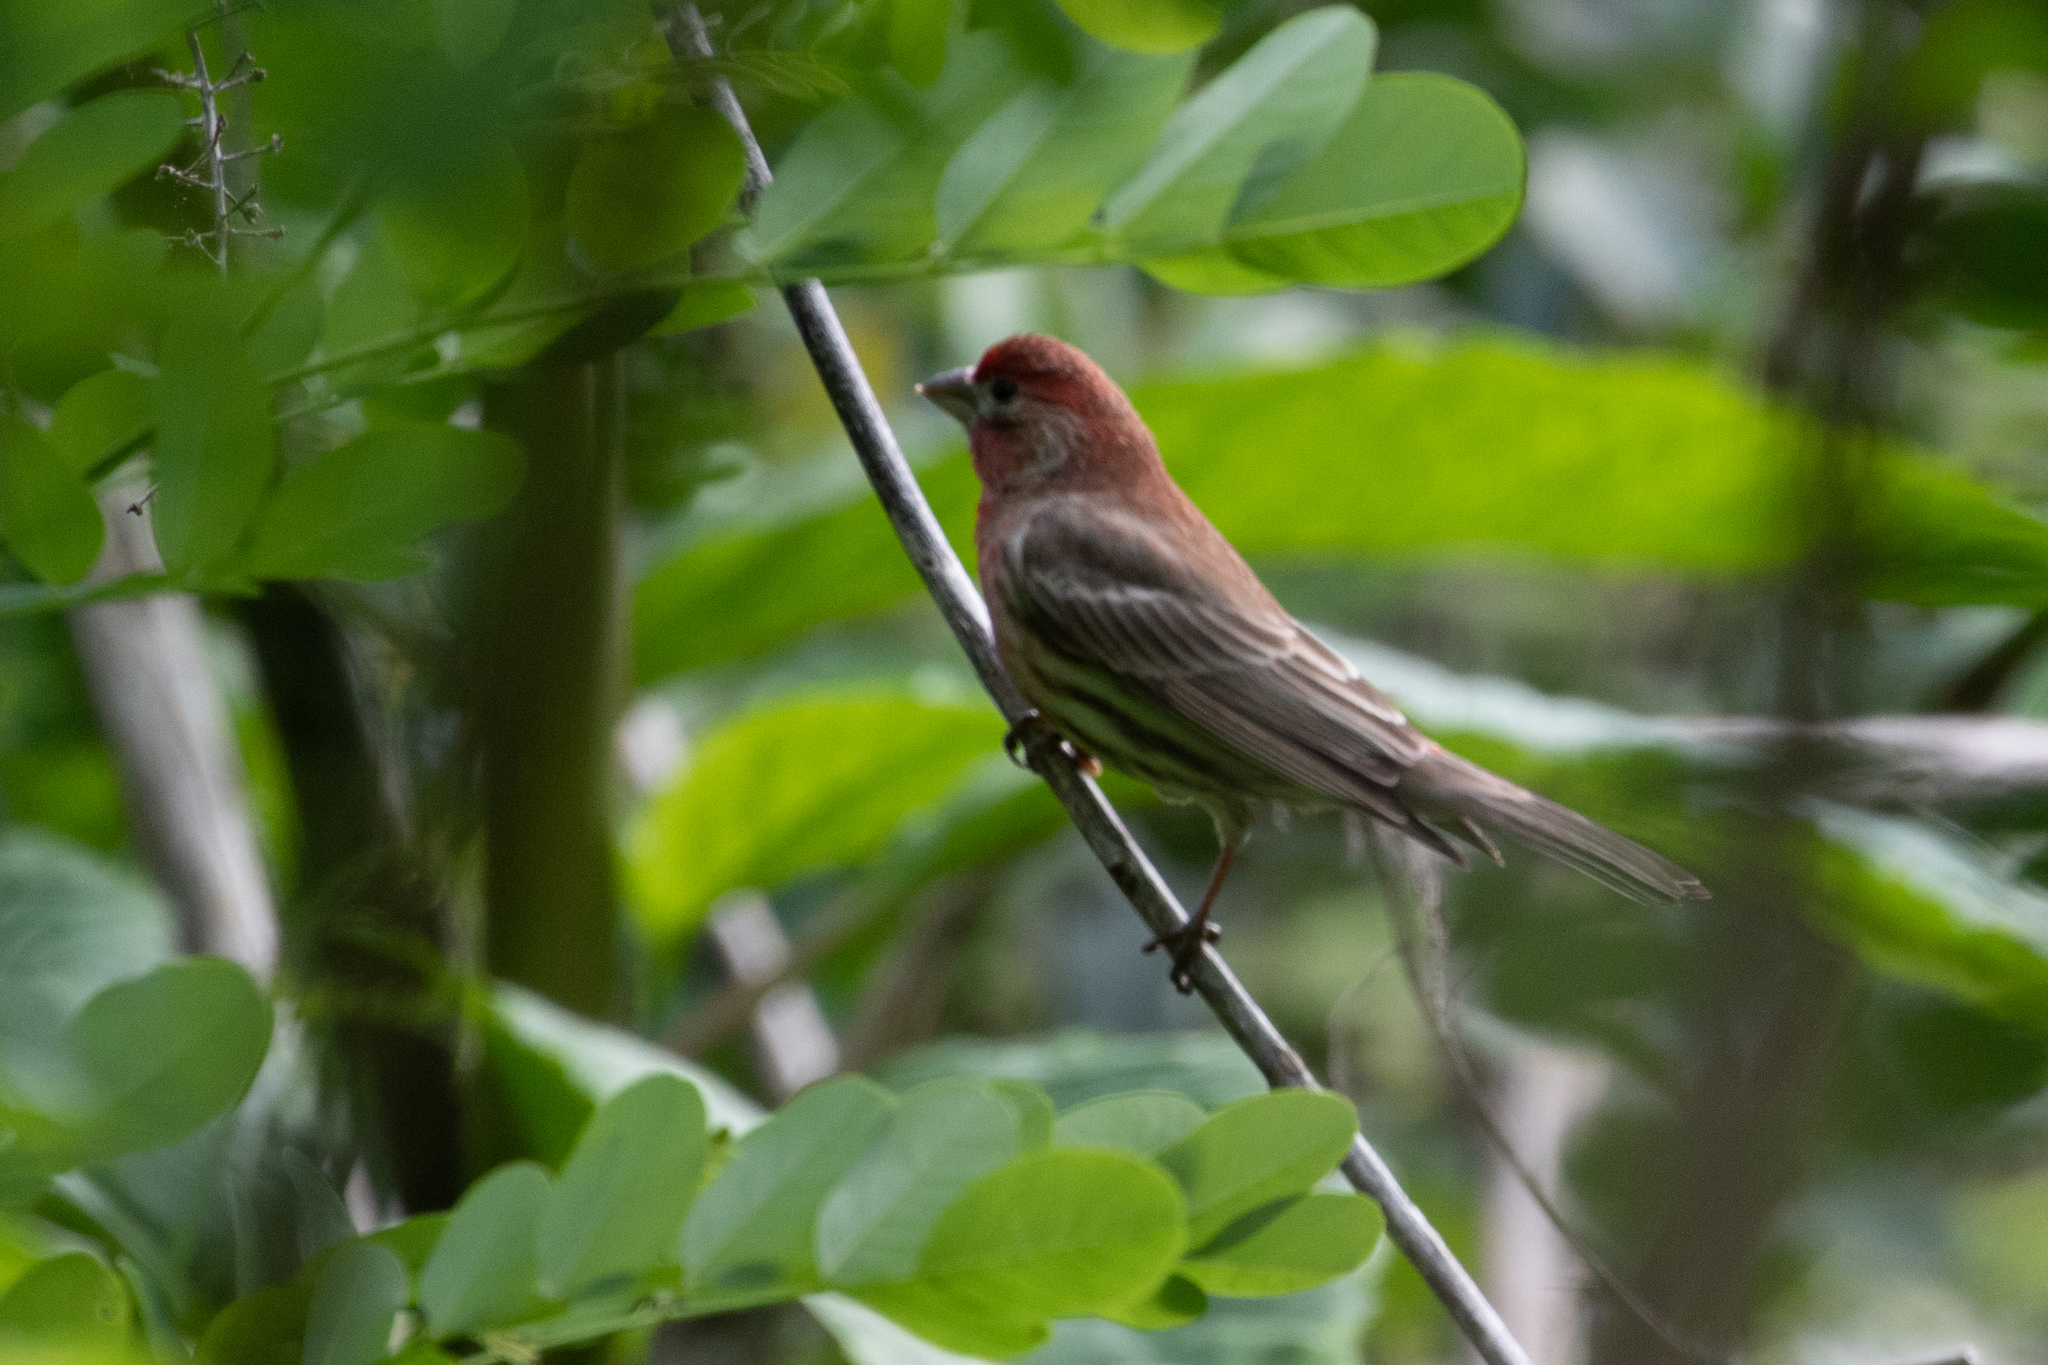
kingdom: Animalia
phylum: Chordata
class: Aves
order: Passeriformes
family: Fringillidae
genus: Haemorhous
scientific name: Haemorhous mexicanus
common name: House finch
